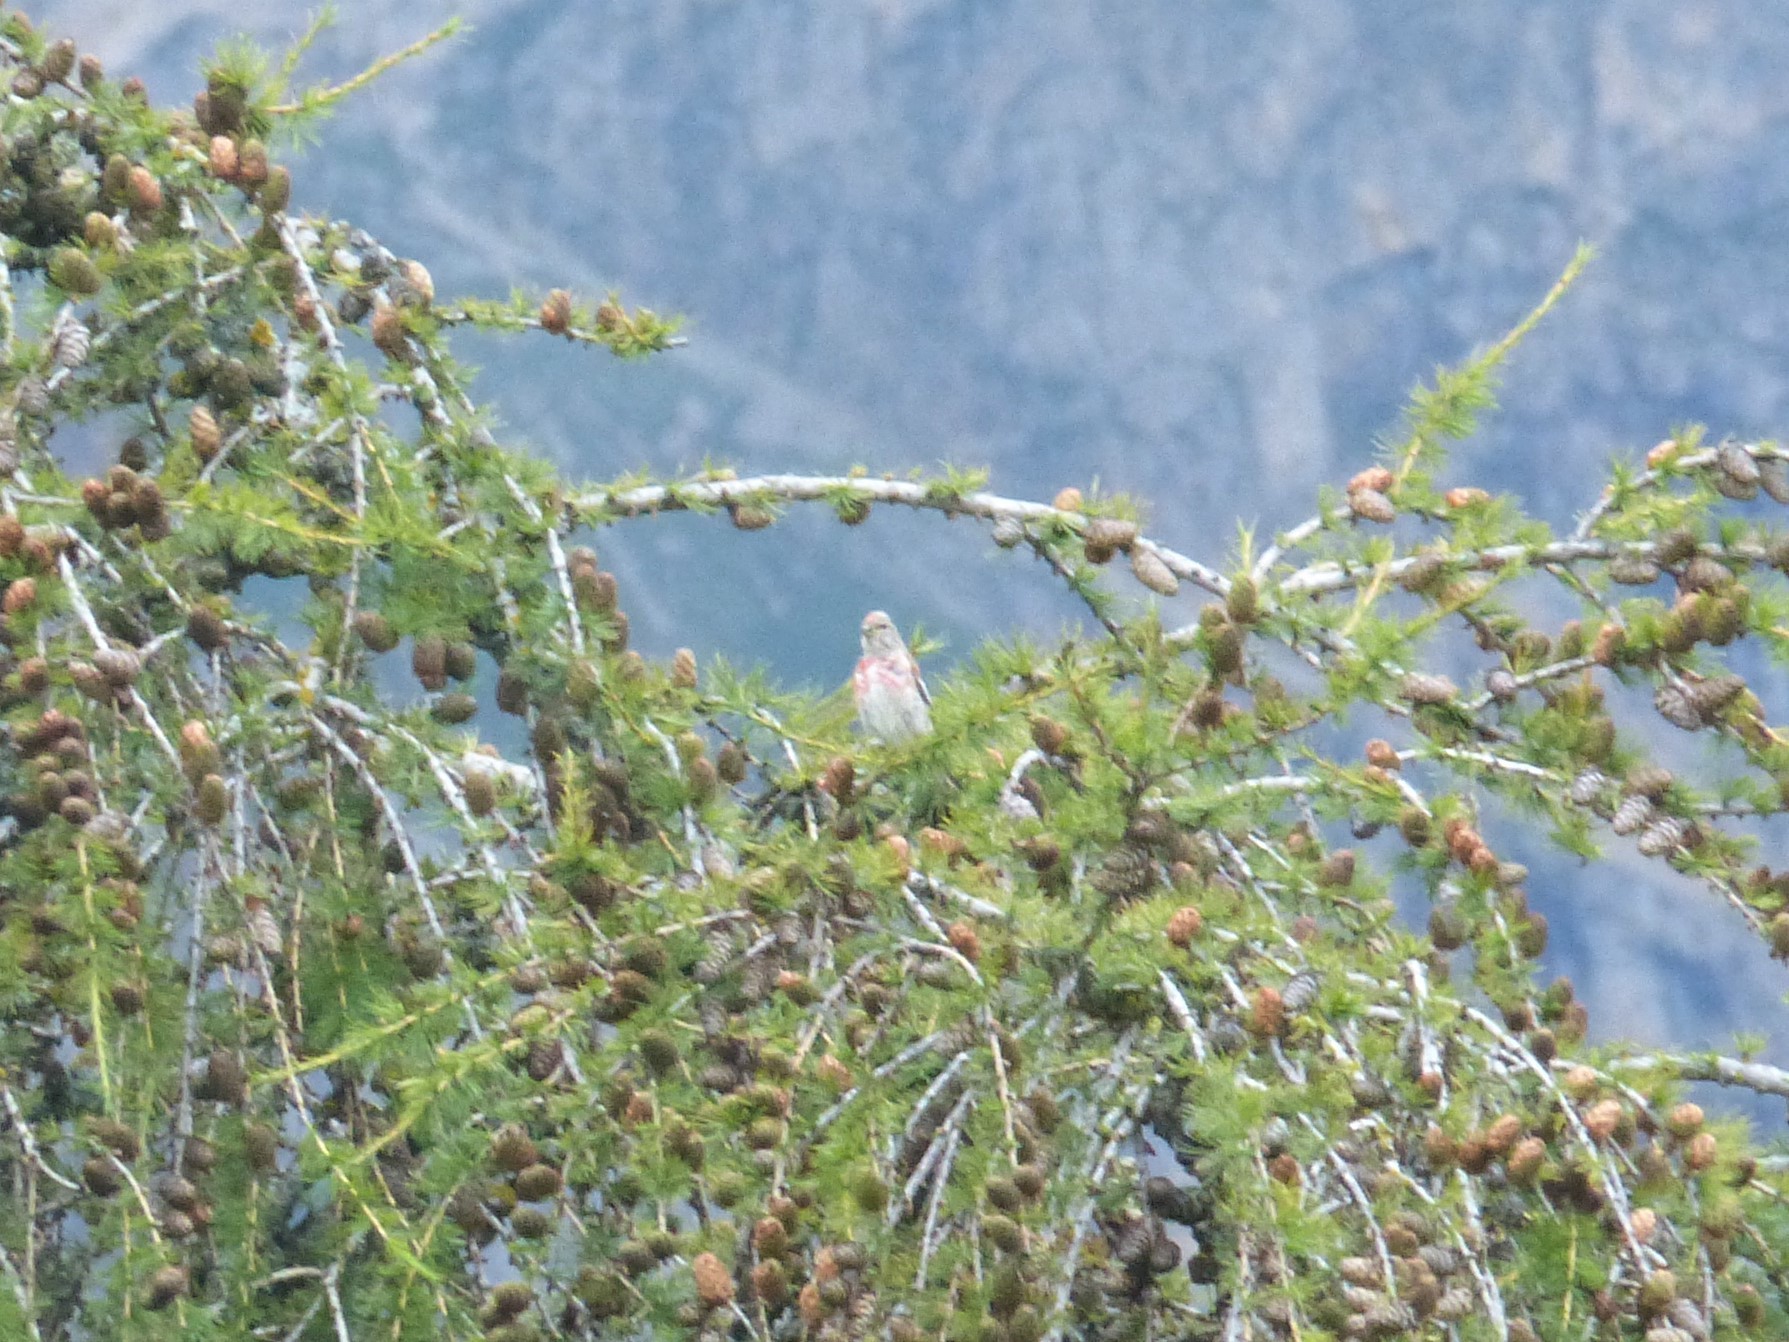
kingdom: Animalia
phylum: Chordata
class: Aves
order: Passeriformes
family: Fringillidae
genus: Linaria
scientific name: Linaria cannabina
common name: Common linnet
